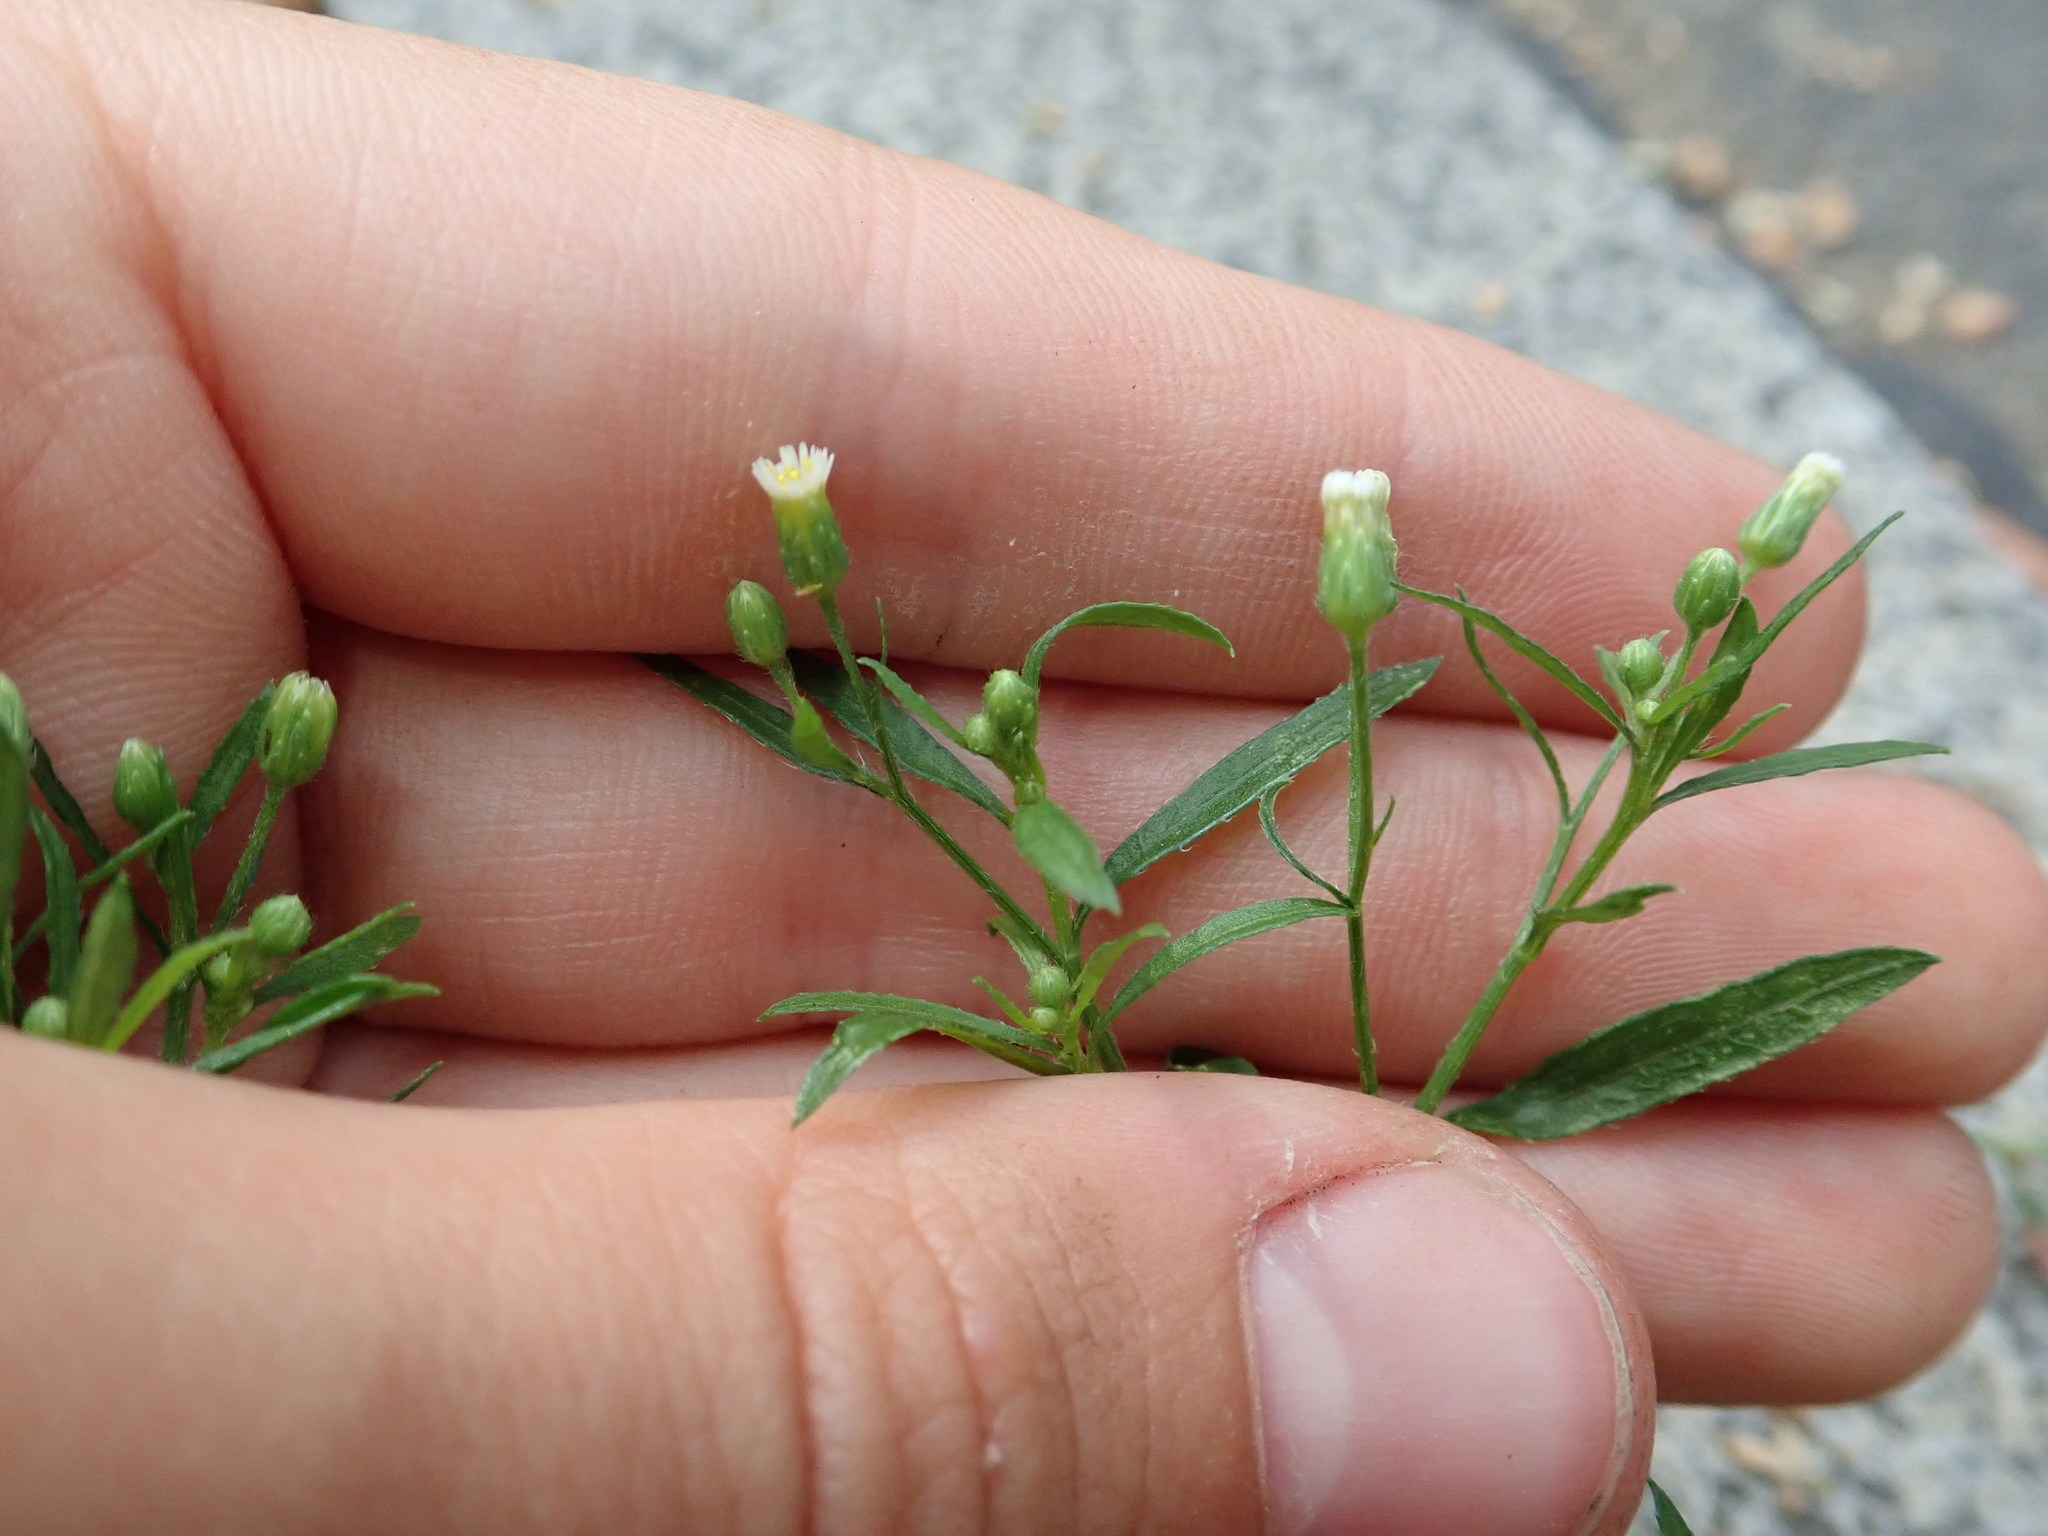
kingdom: Plantae
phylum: Tracheophyta
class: Magnoliopsida
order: Asterales
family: Asteraceae
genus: Erigeron
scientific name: Erigeron canadensis
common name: Canadian fleabane
